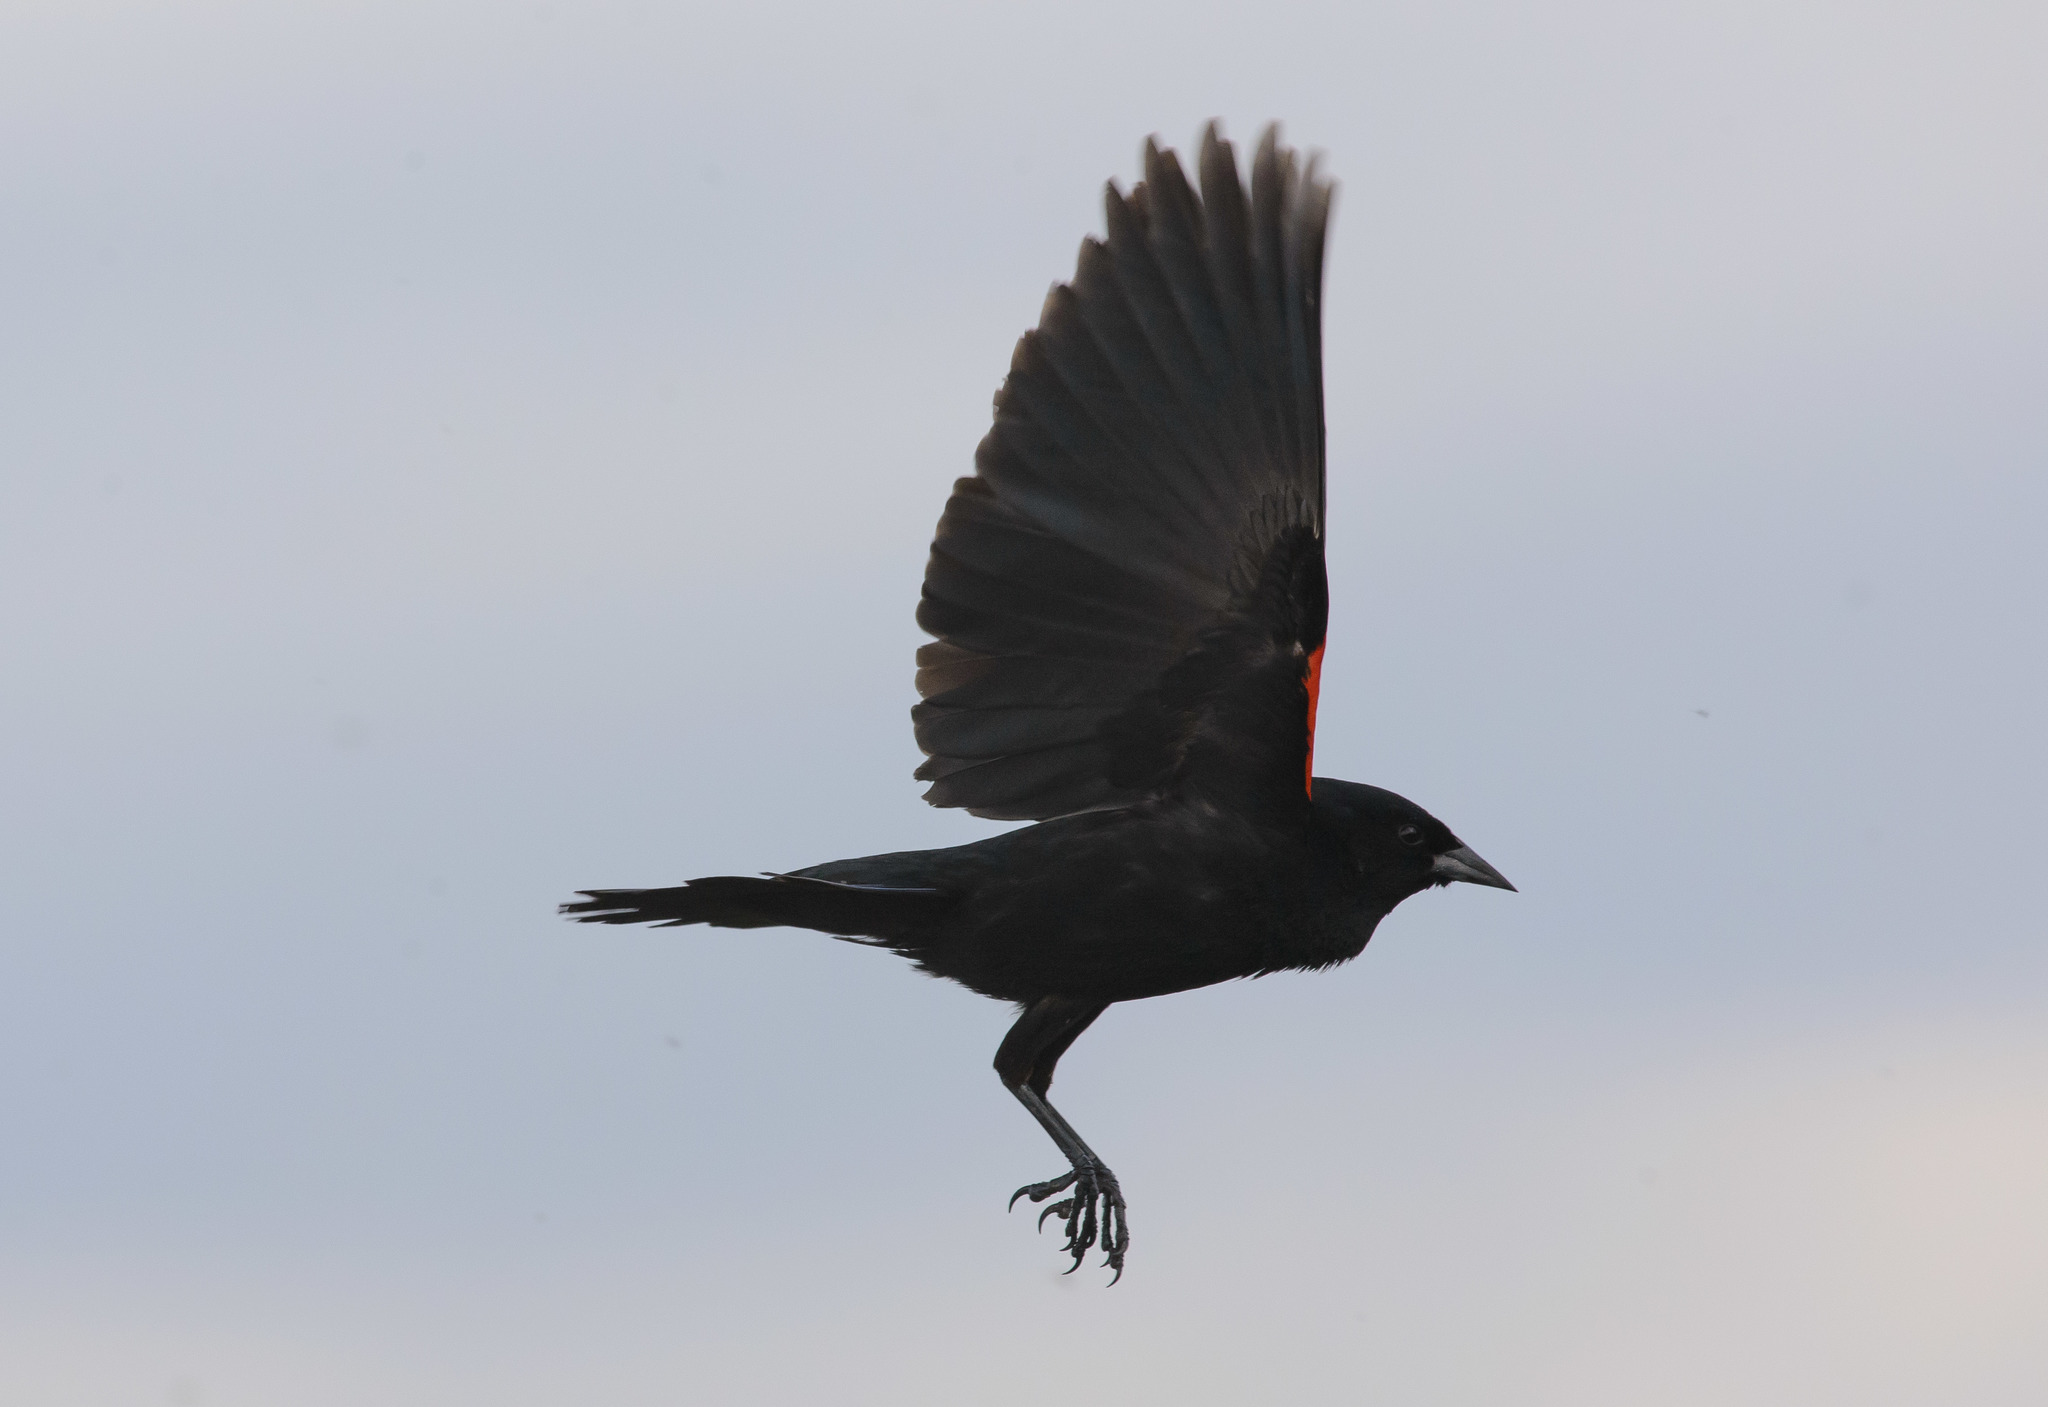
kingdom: Animalia
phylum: Chordata
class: Aves
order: Passeriformes
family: Icteridae
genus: Agelaius
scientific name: Agelaius phoeniceus
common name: Red-winged blackbird
